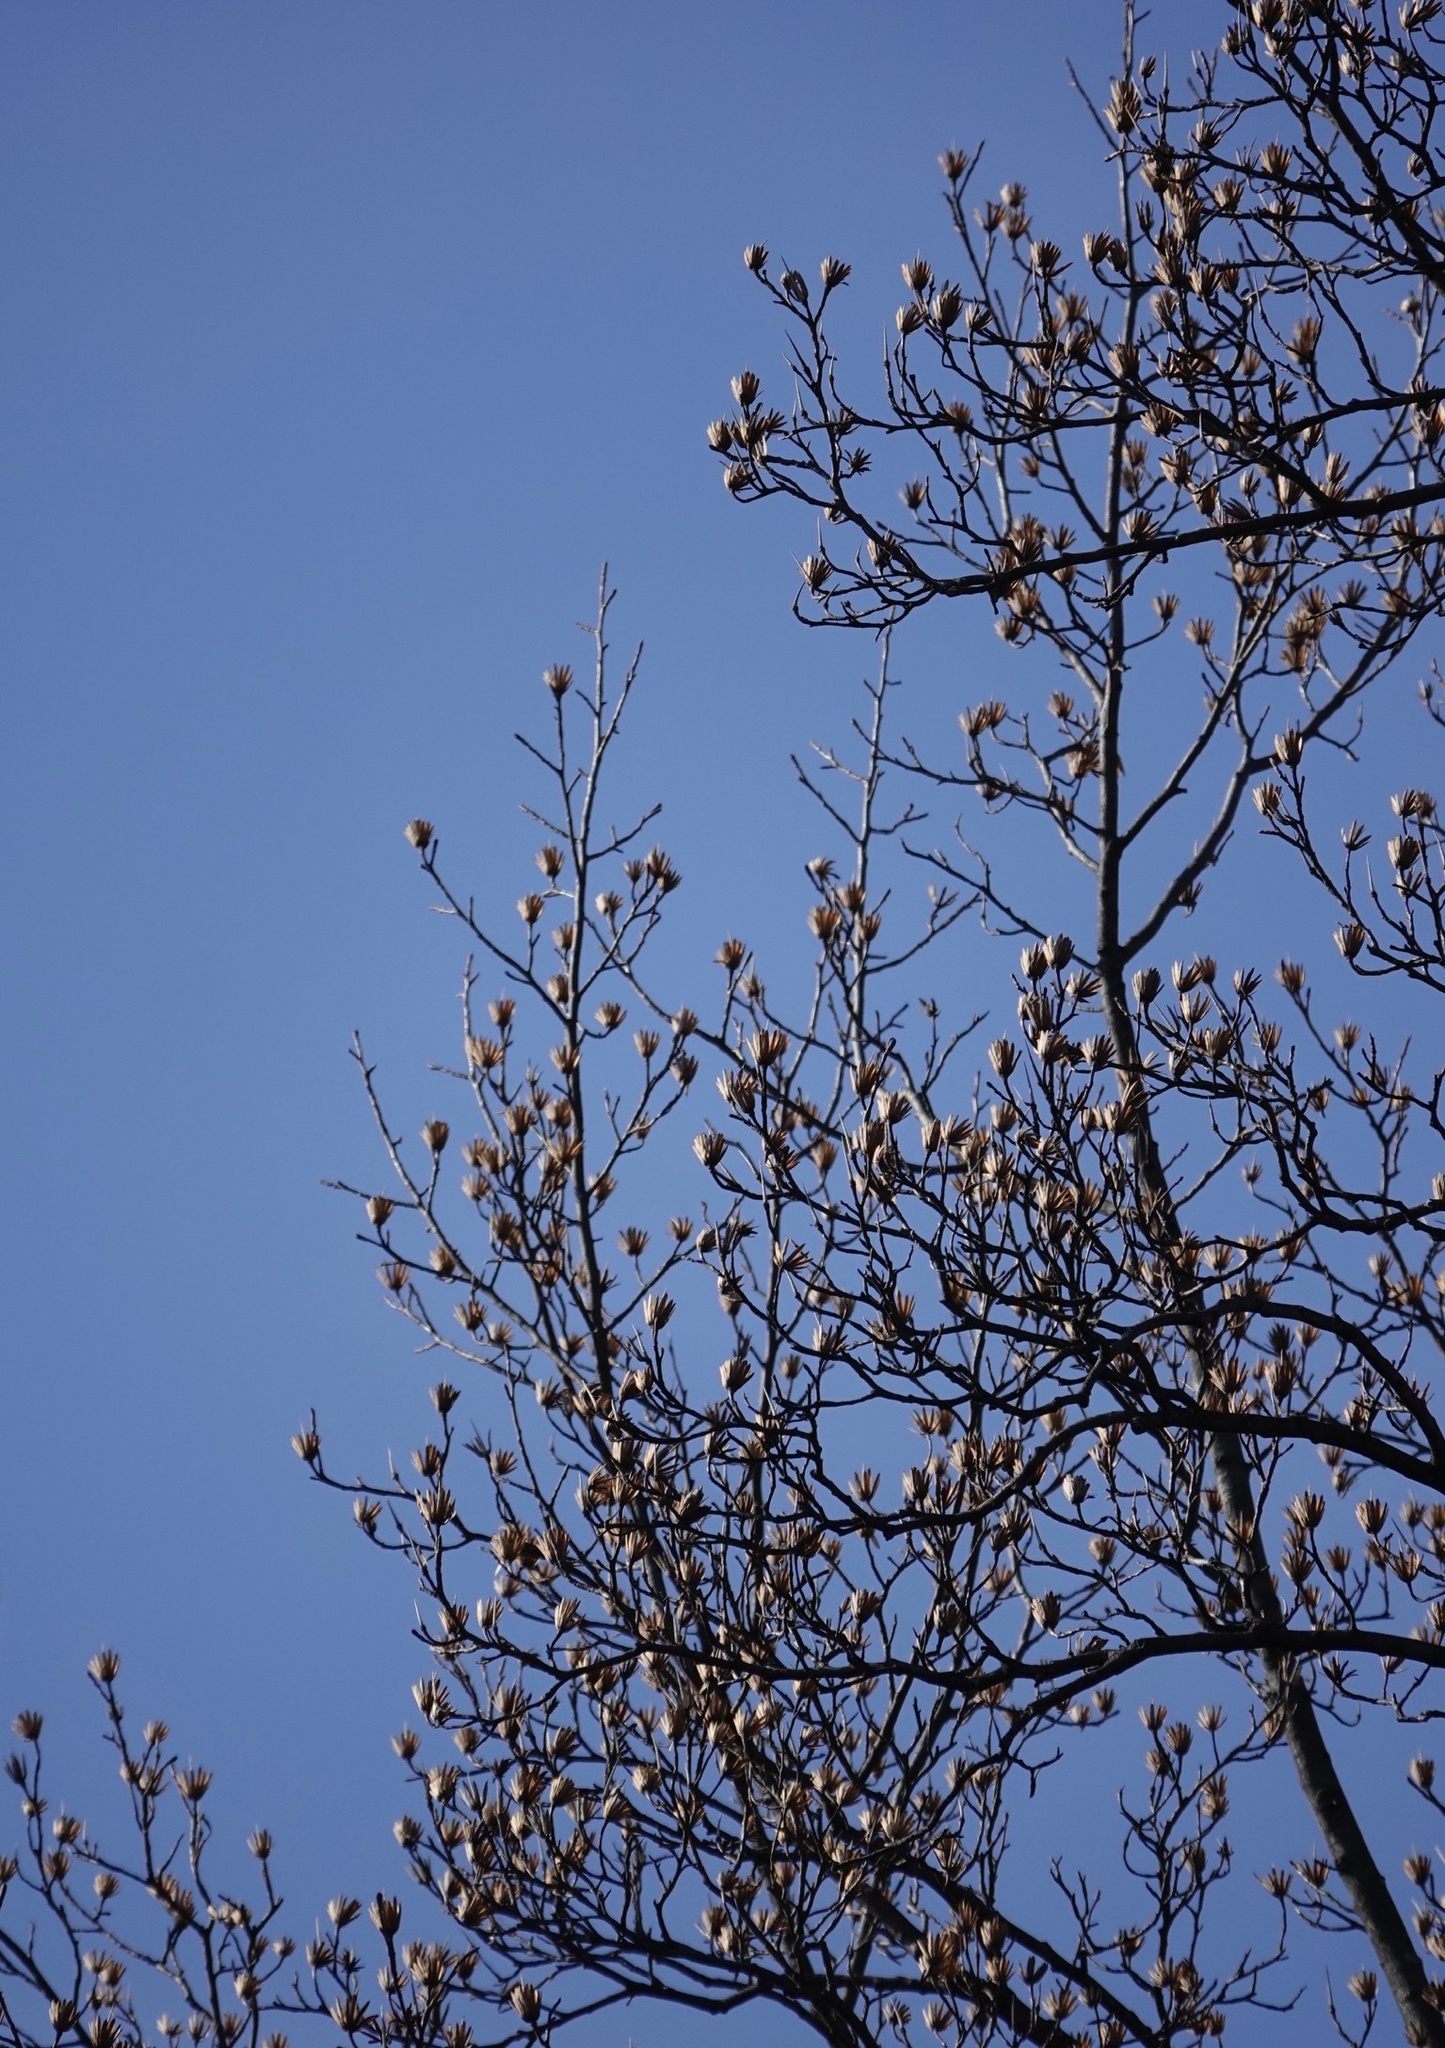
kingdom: Plantae
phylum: Tracheophyta
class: Magnoliopsida
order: Magnoliales
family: Magnoliaceae
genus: Liriodendron
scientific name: Liriodendron tulipifera
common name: Tulip tree
